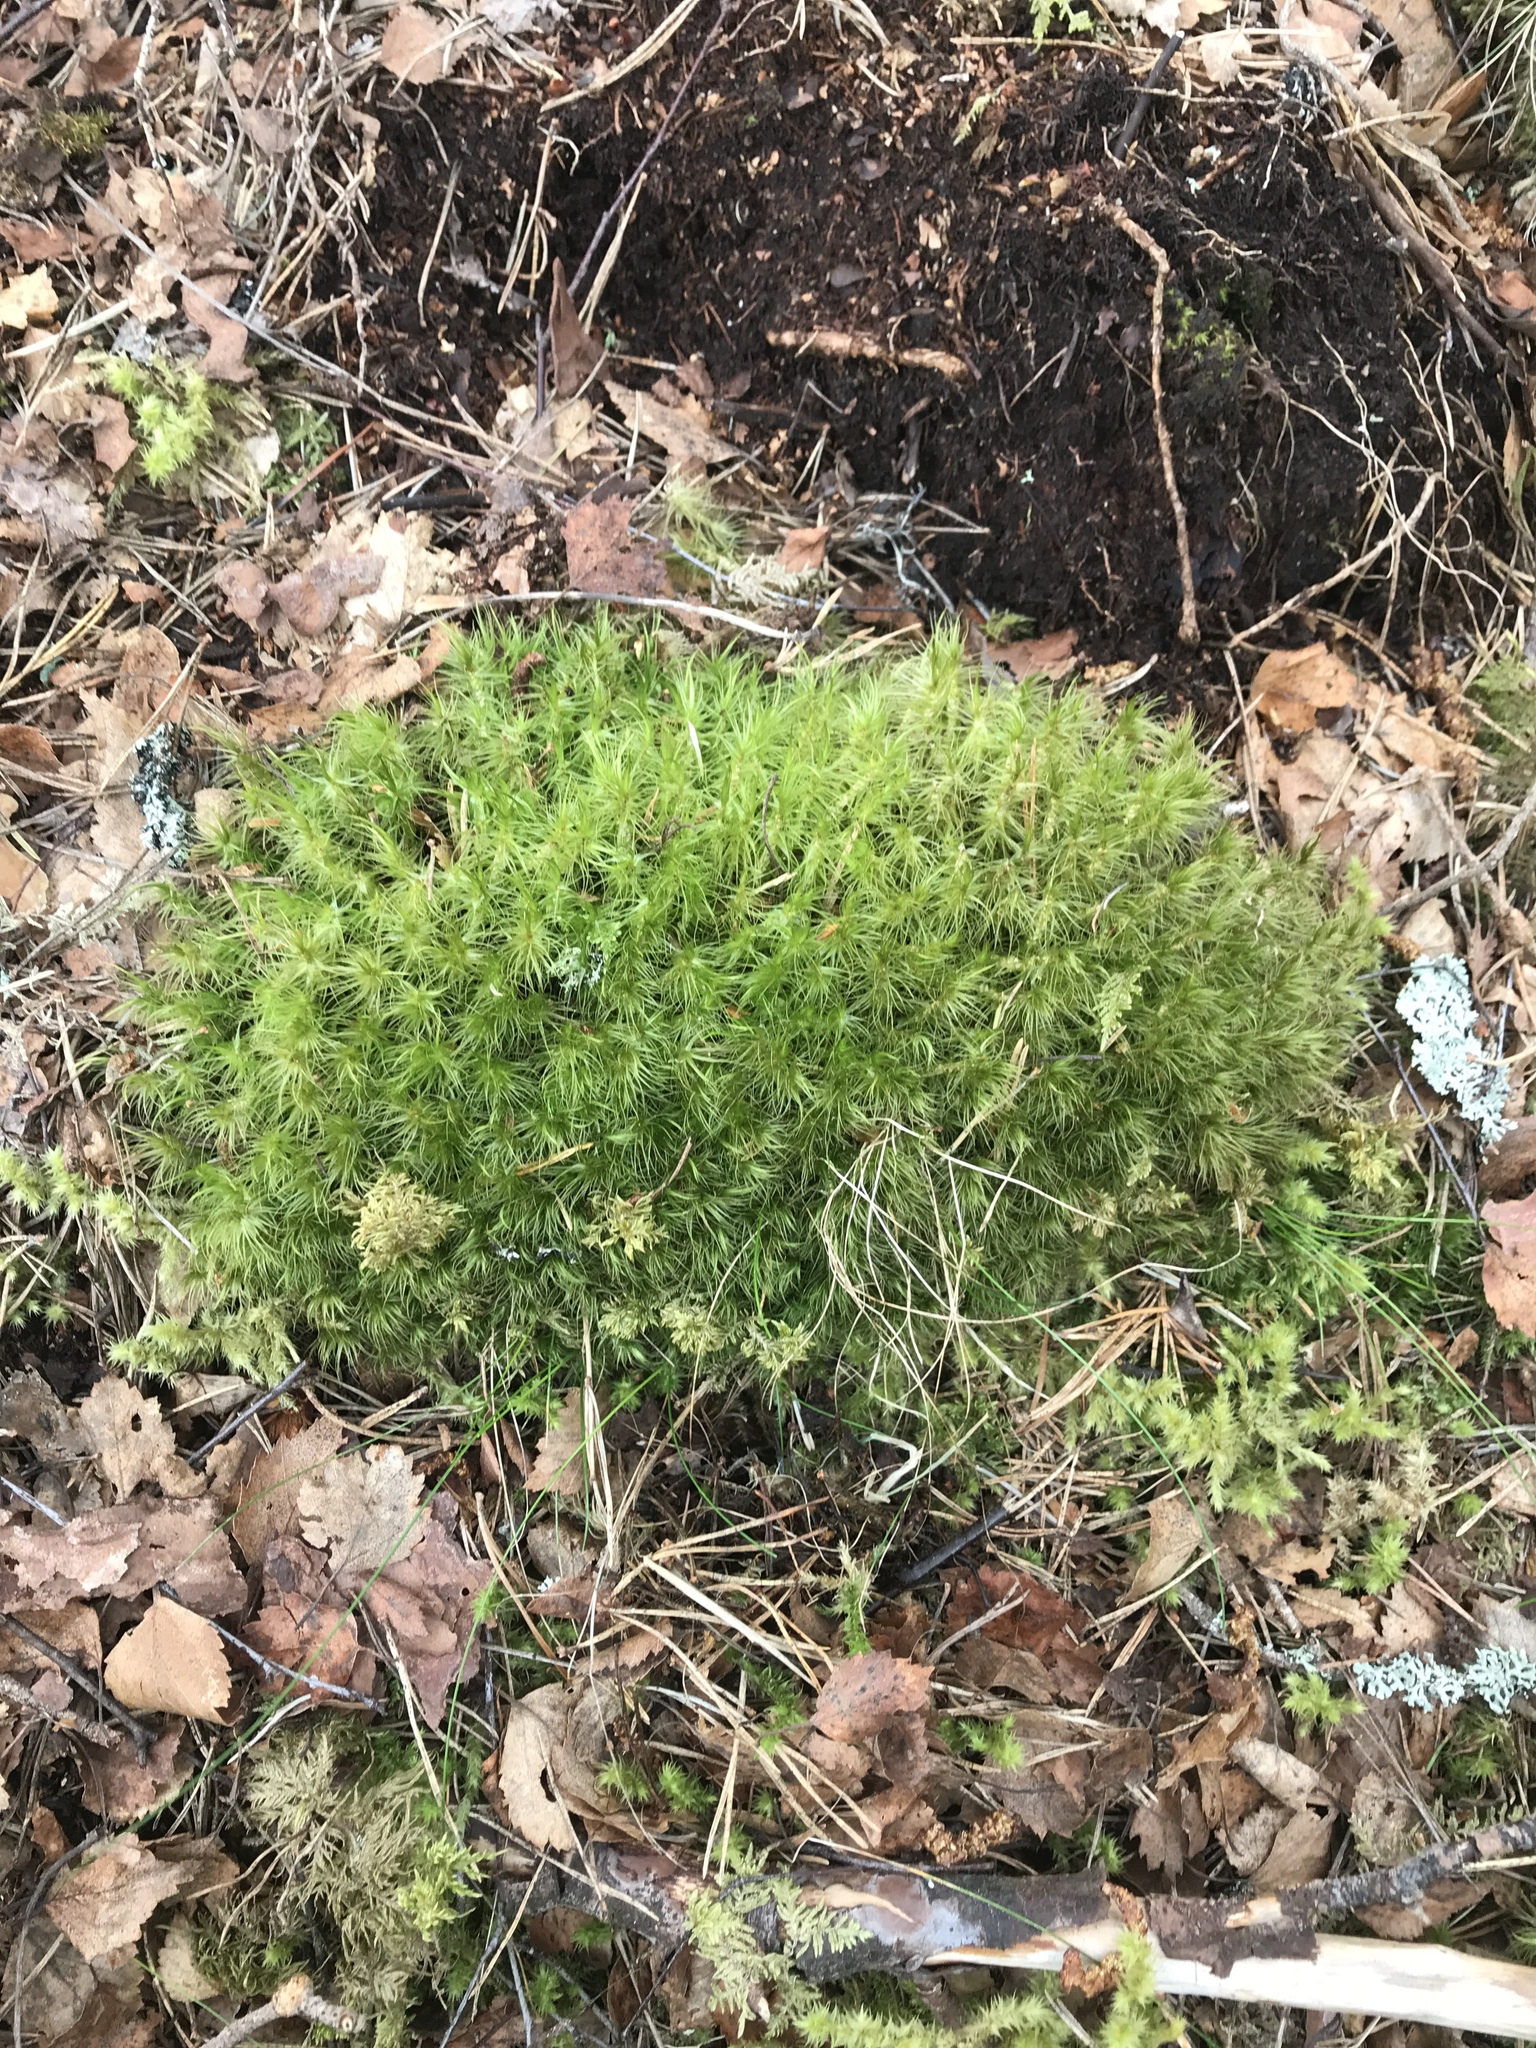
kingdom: Plantae
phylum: Bryophyta
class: Bryopsida
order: Dicranales
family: Dicranaceae
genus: Dicranum
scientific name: Dicranum majus
